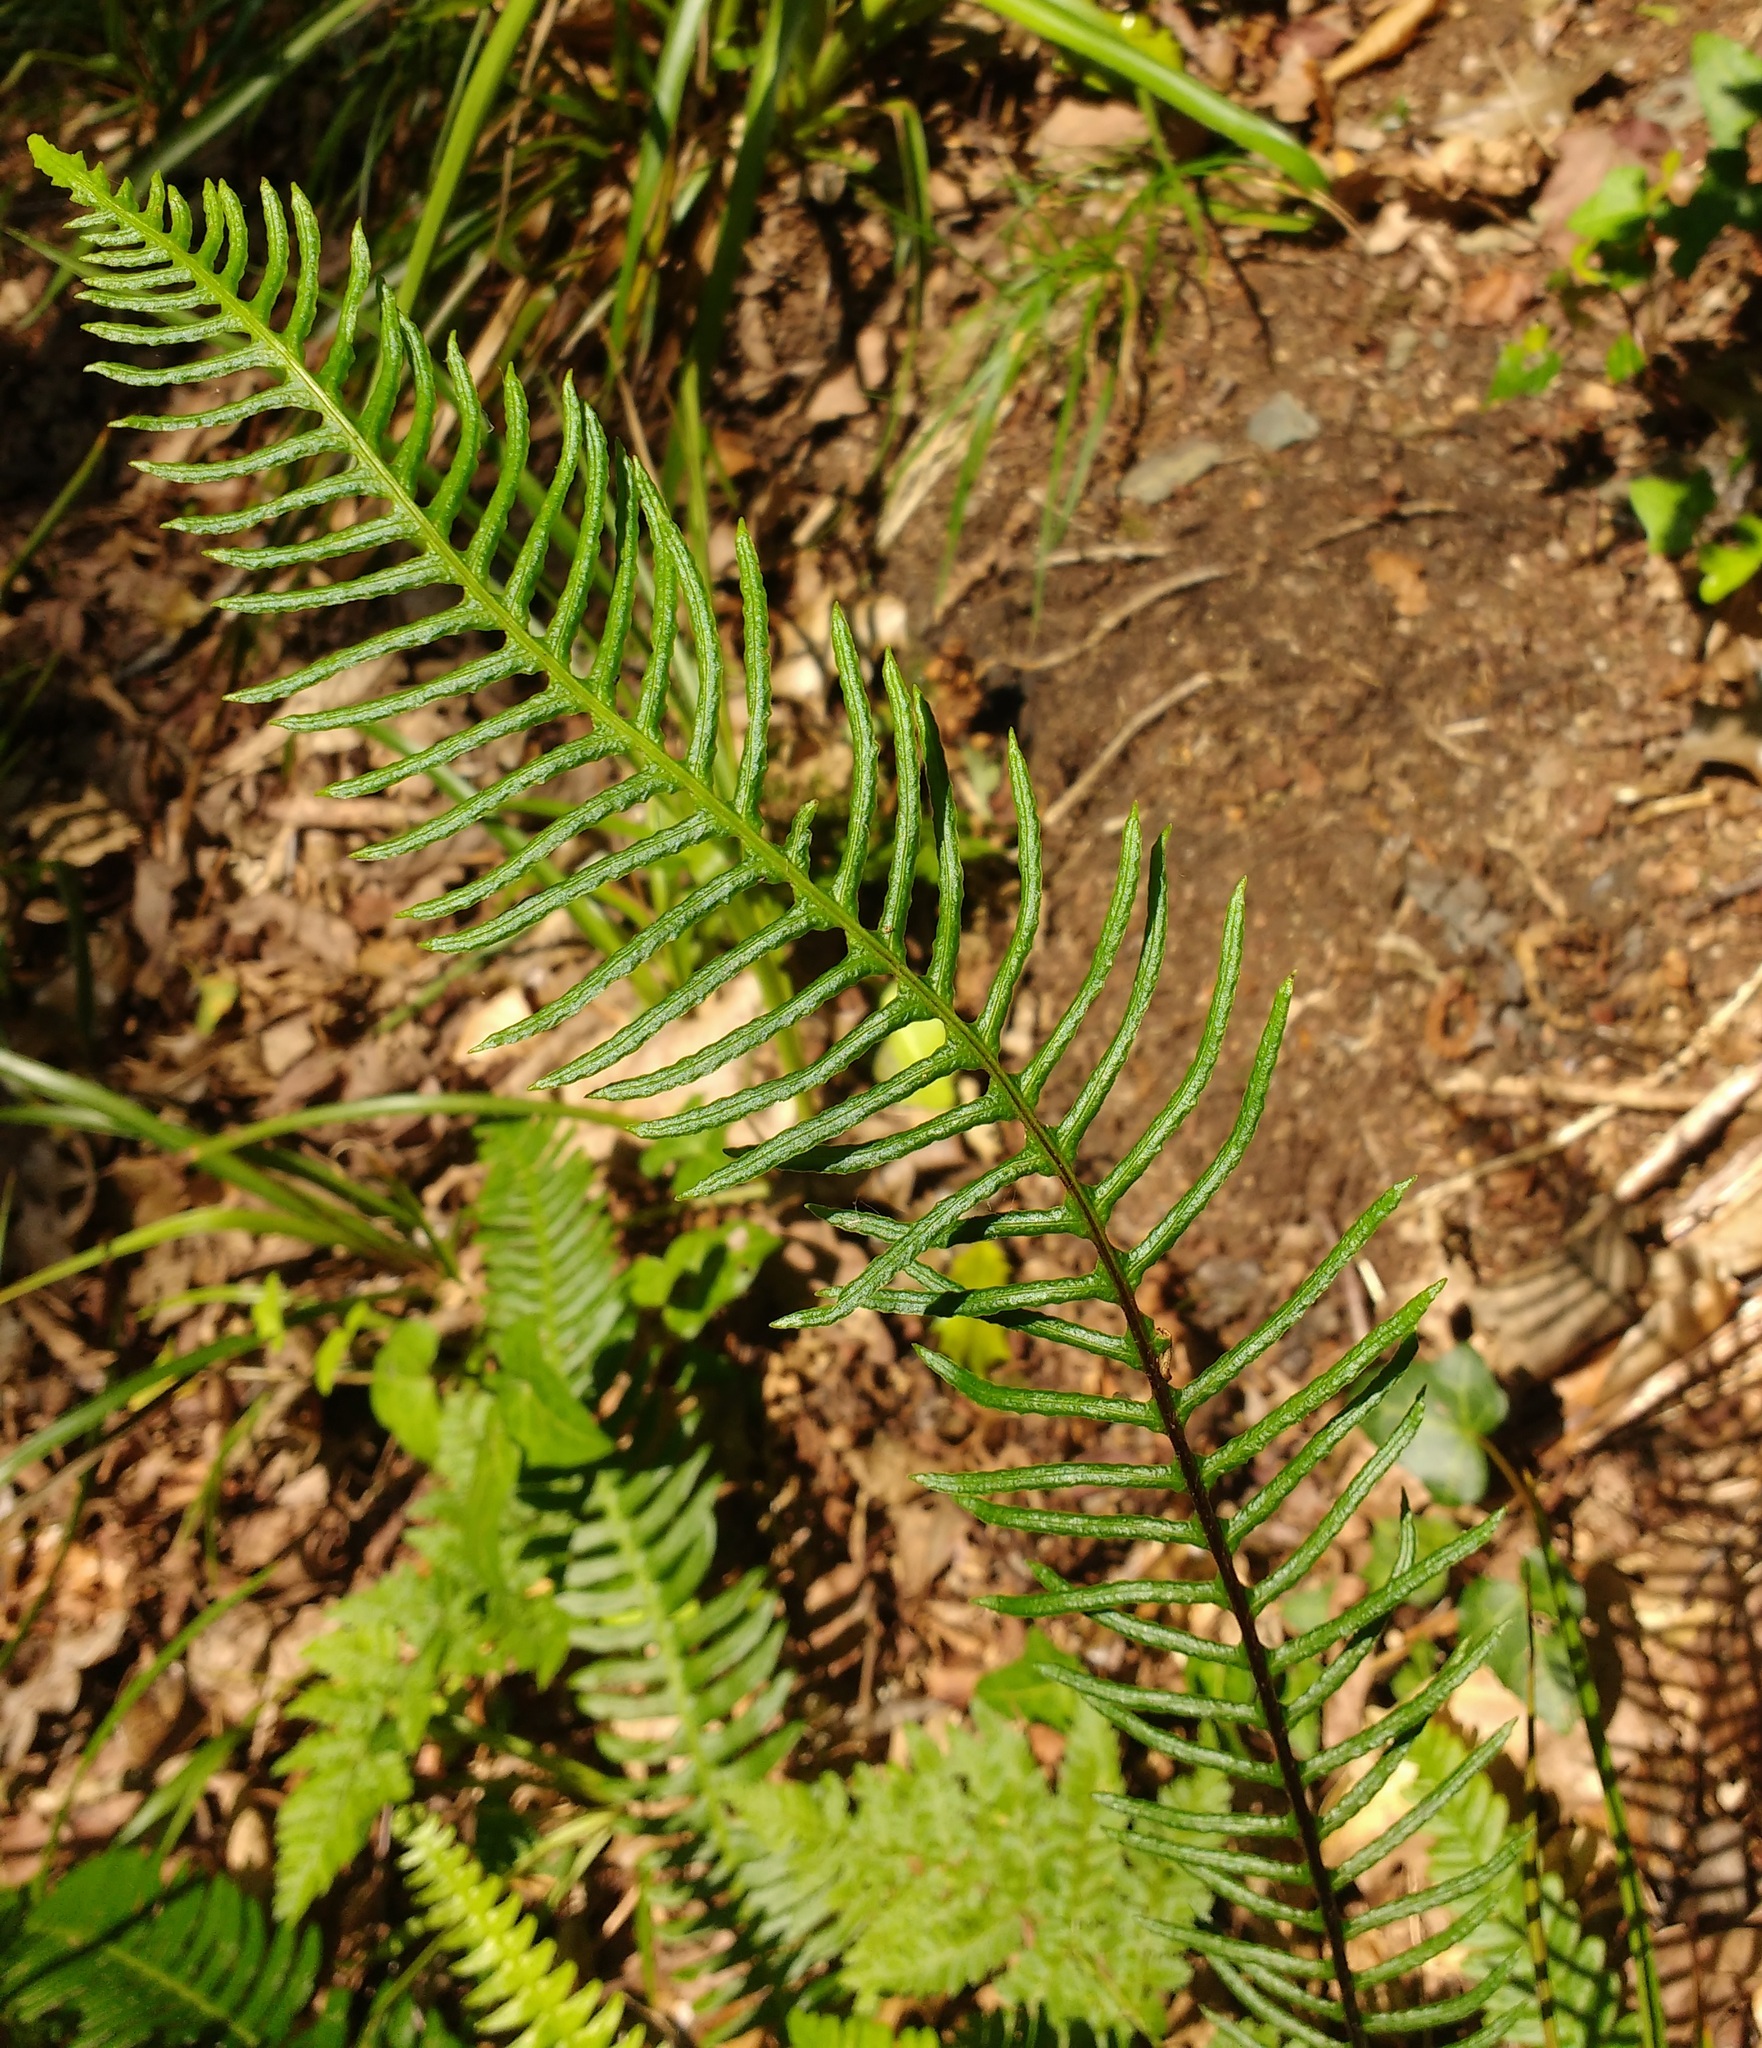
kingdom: Plantae
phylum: Tracheophyta
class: Polypodiopsida
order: Polypodiales
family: Blechnaceae
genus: Struthiopteris
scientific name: Struthiopteris spicant
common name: Deer fern
